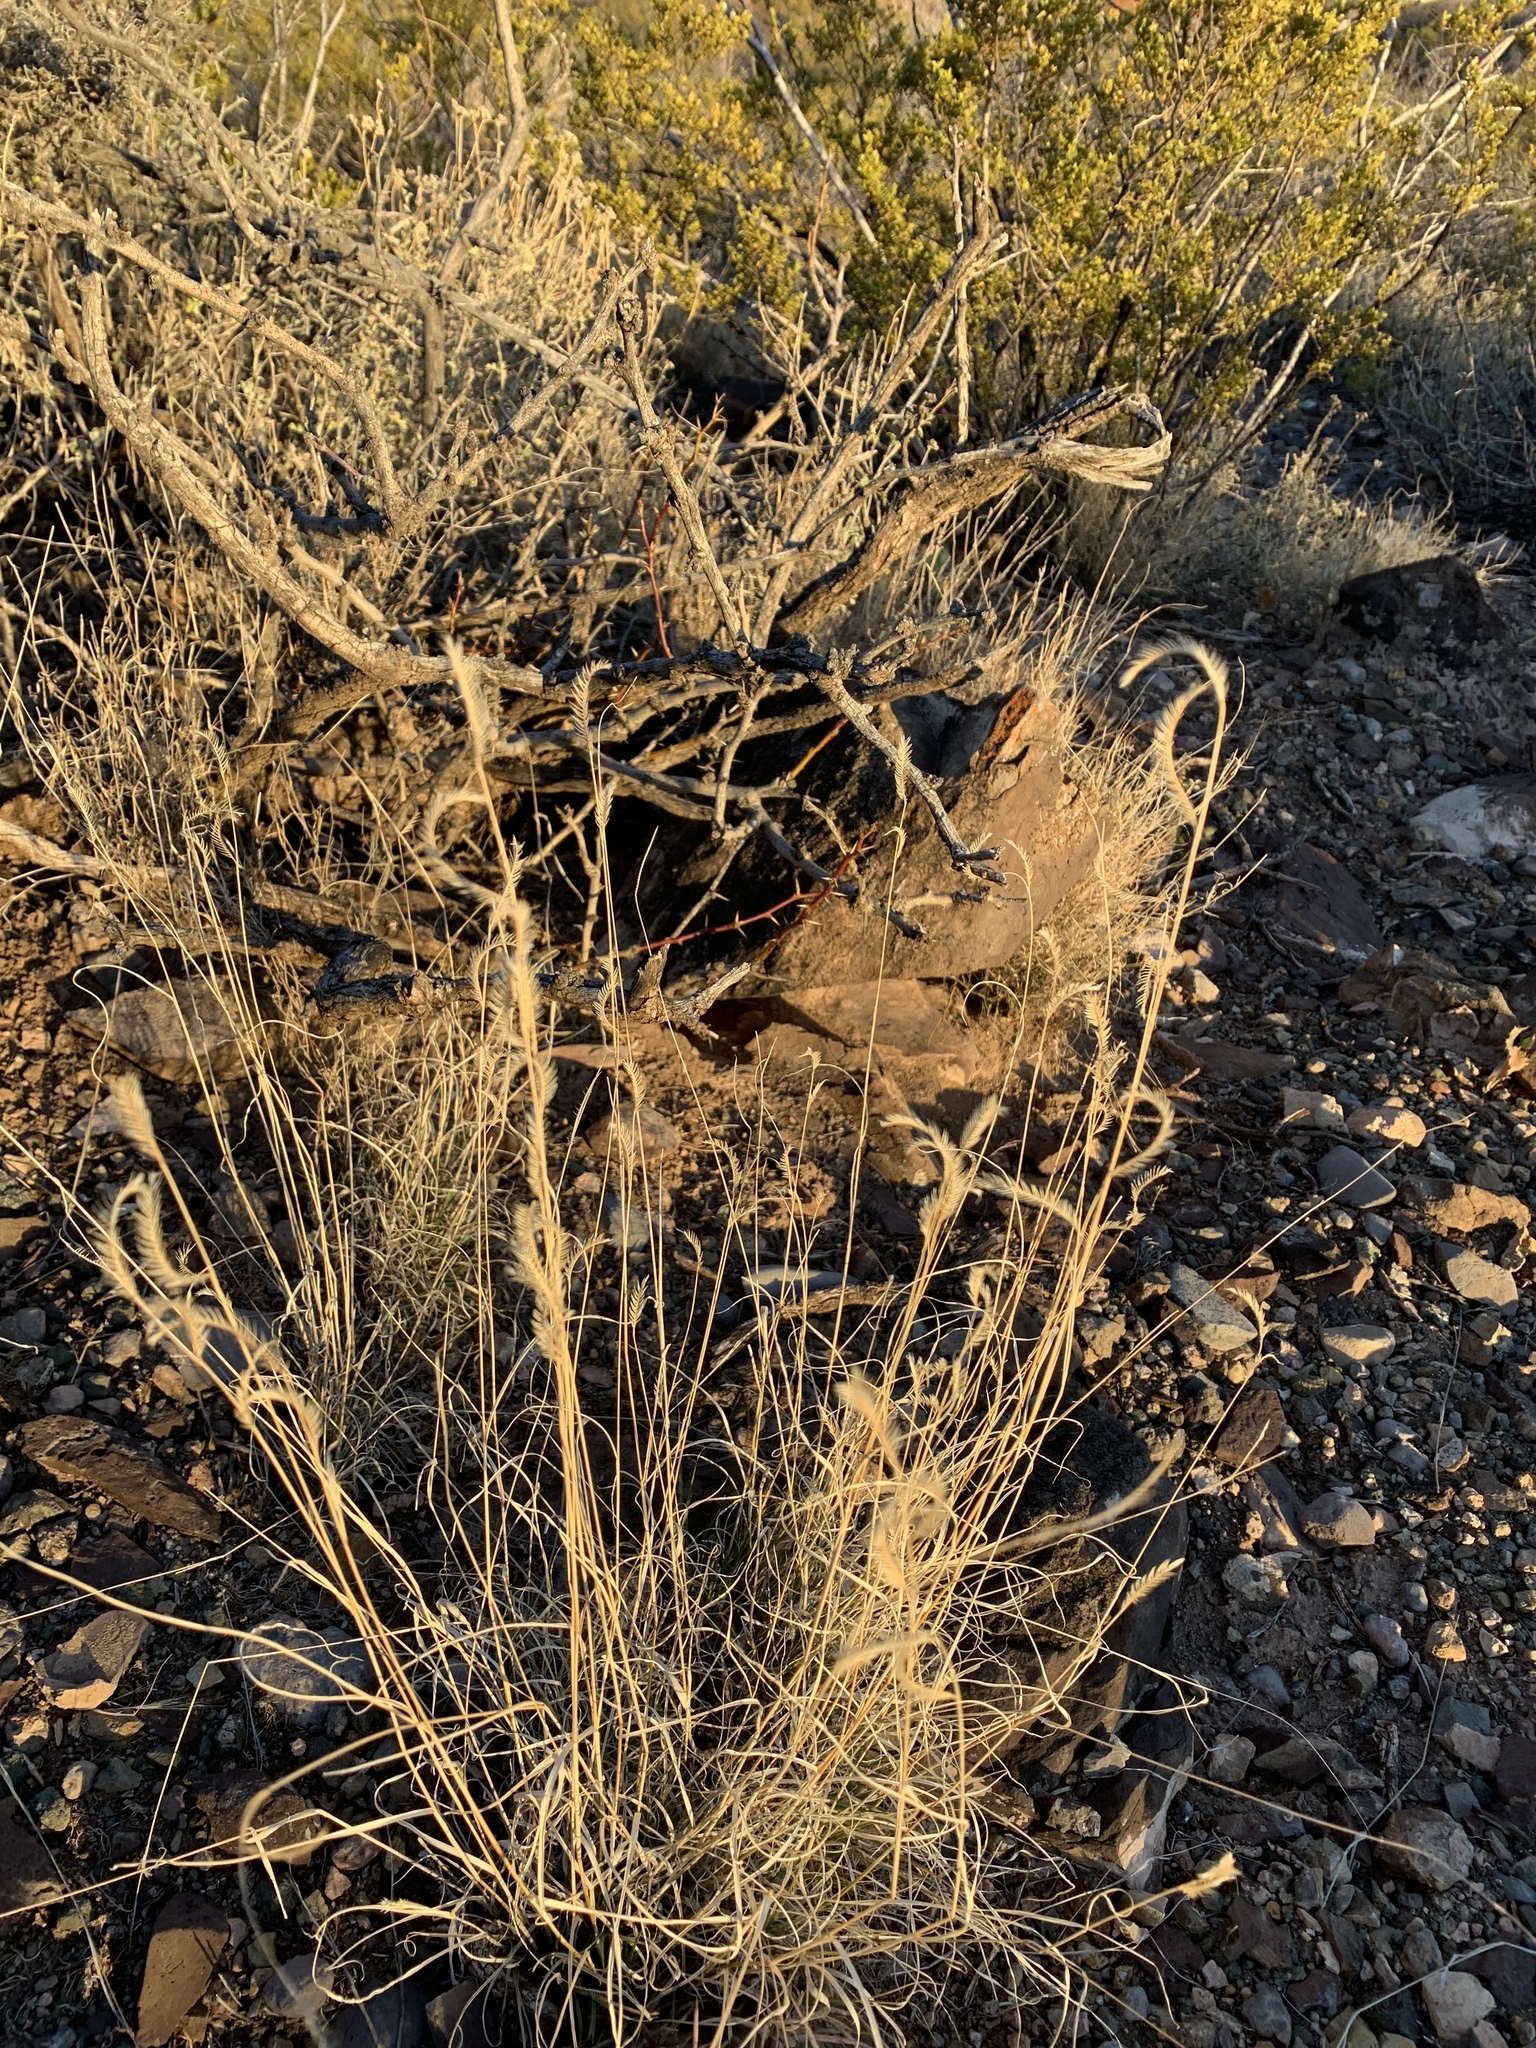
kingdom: Plantae
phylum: Tracheophyta
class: Liliopsida
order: Poales
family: Poaceae
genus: Bouteloua
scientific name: Bouteloua gracilis
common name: Blue grama
